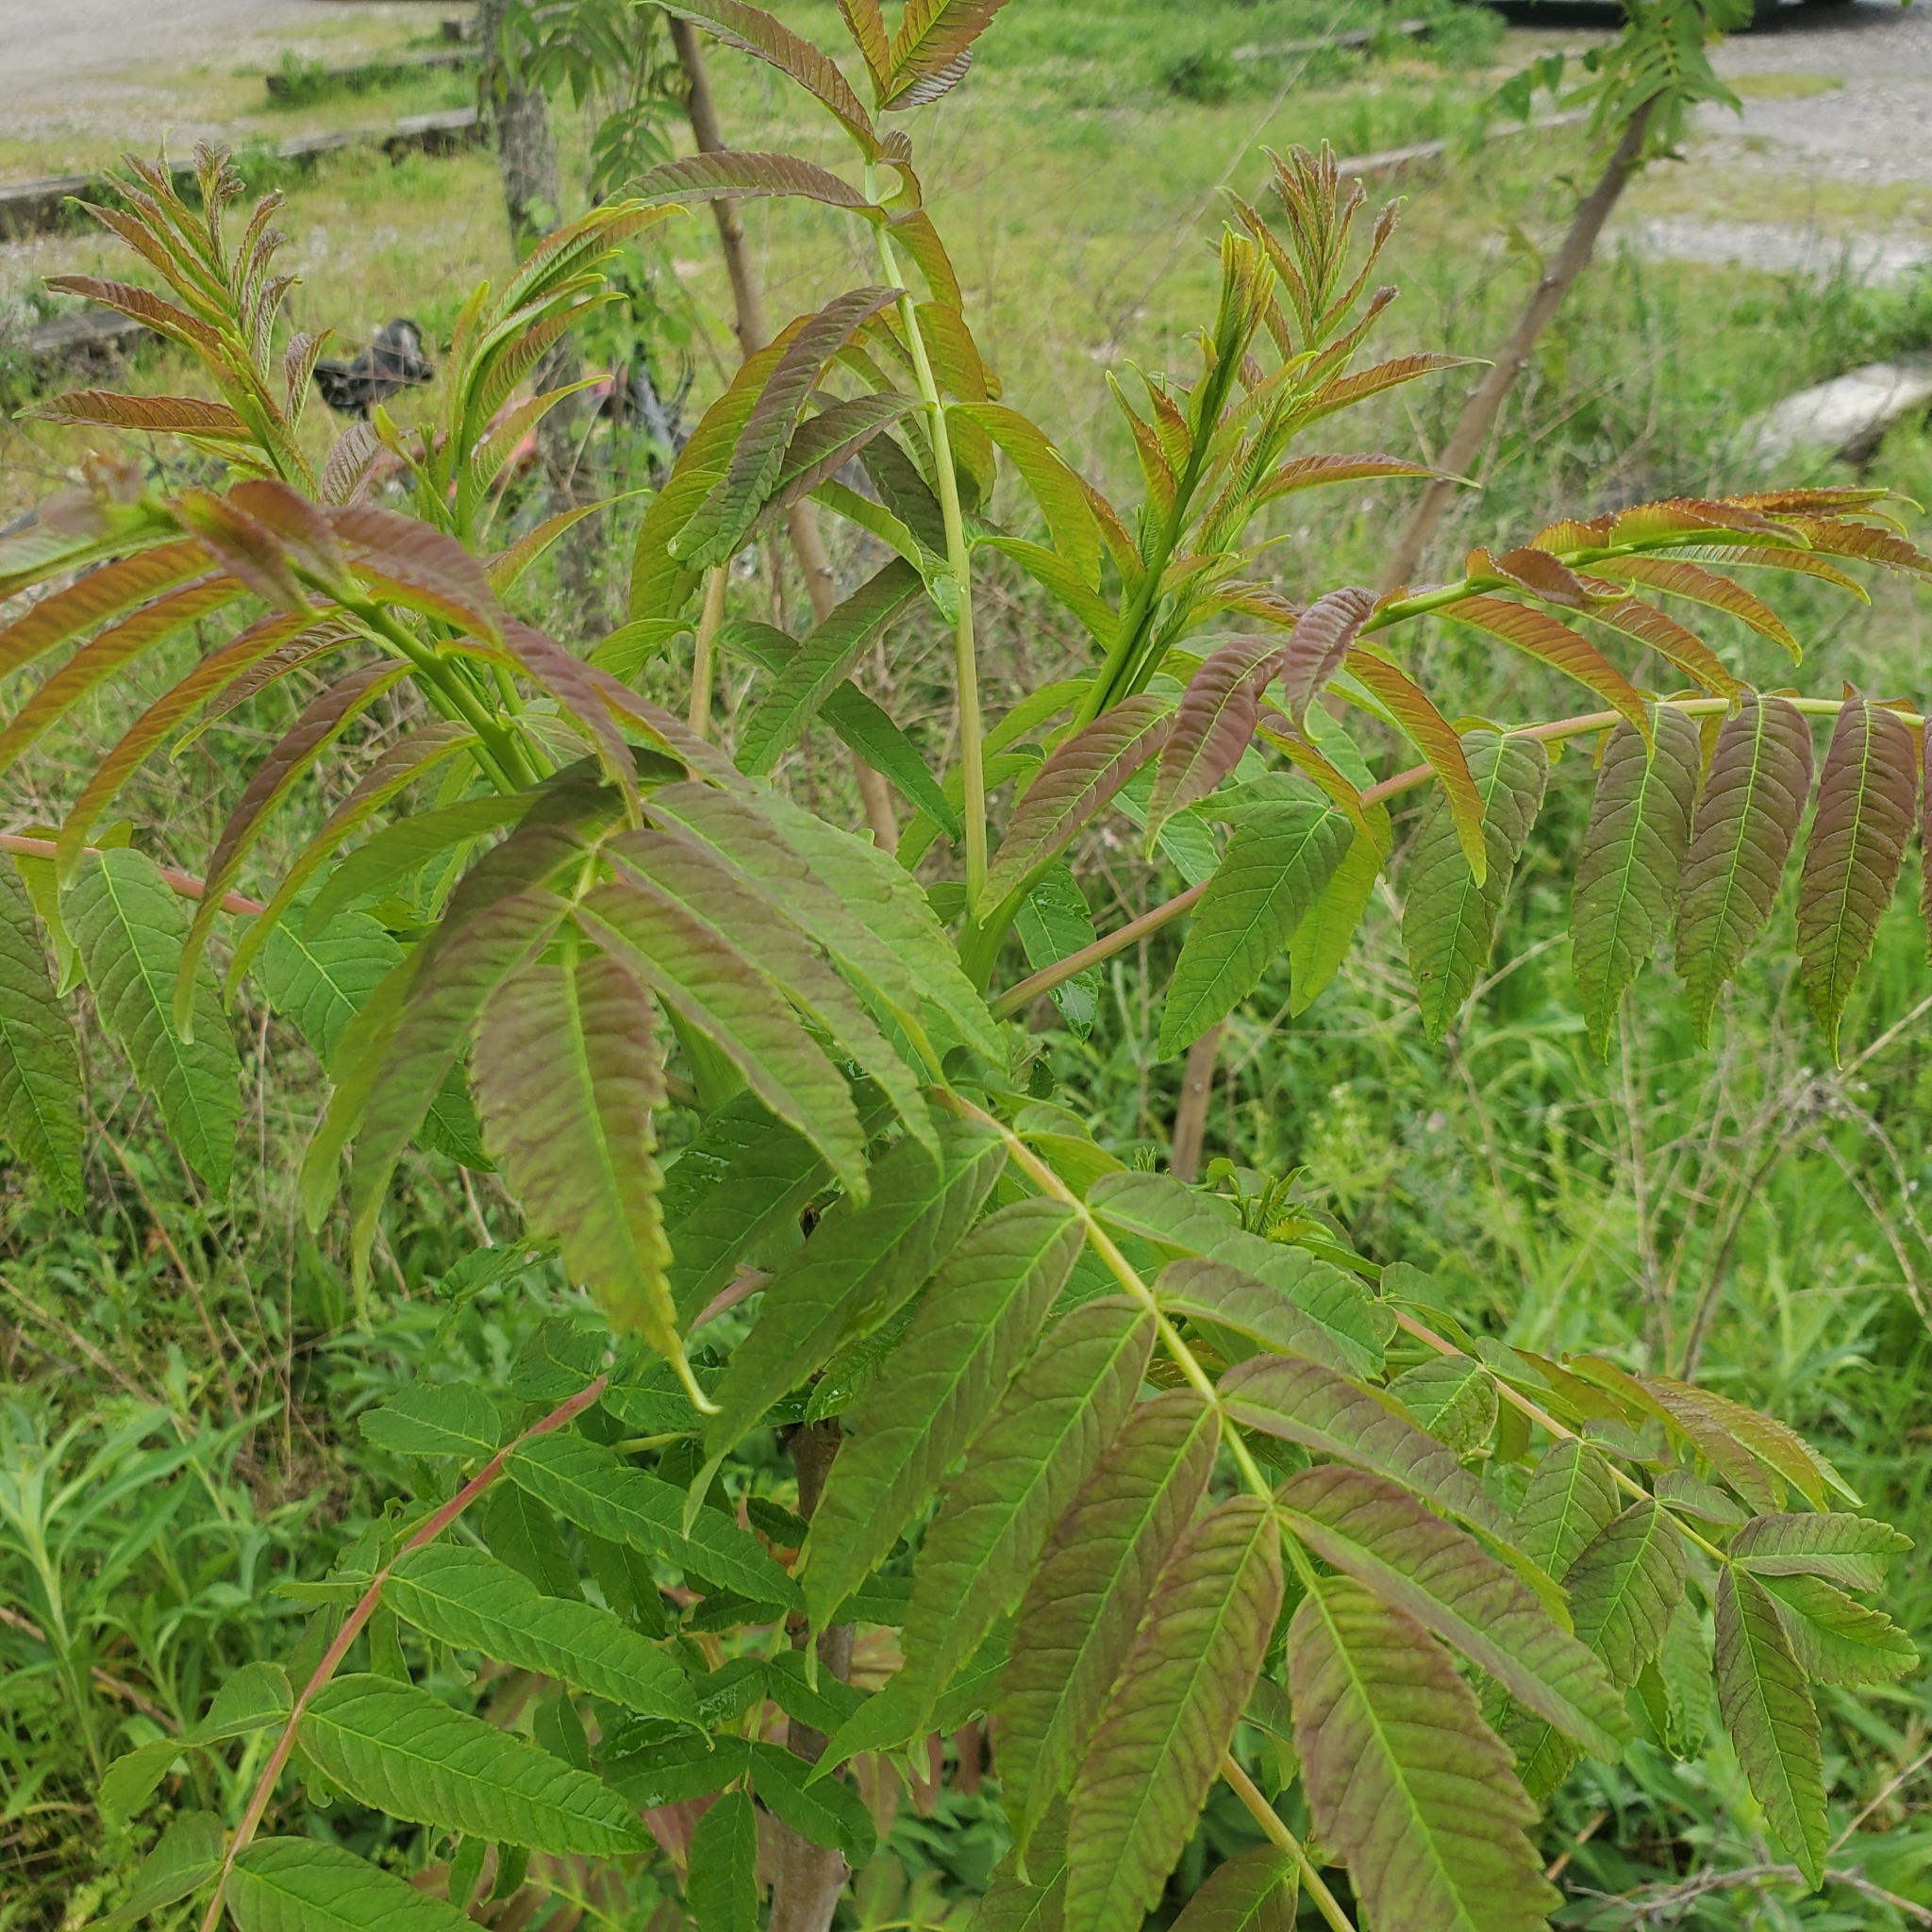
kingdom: Plantae
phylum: Tracheophyta
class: Magnoliopsida
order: Sapindales
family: Anacardiaceae
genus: Rhus
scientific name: Rhus glabra
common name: Scarlet sumac
